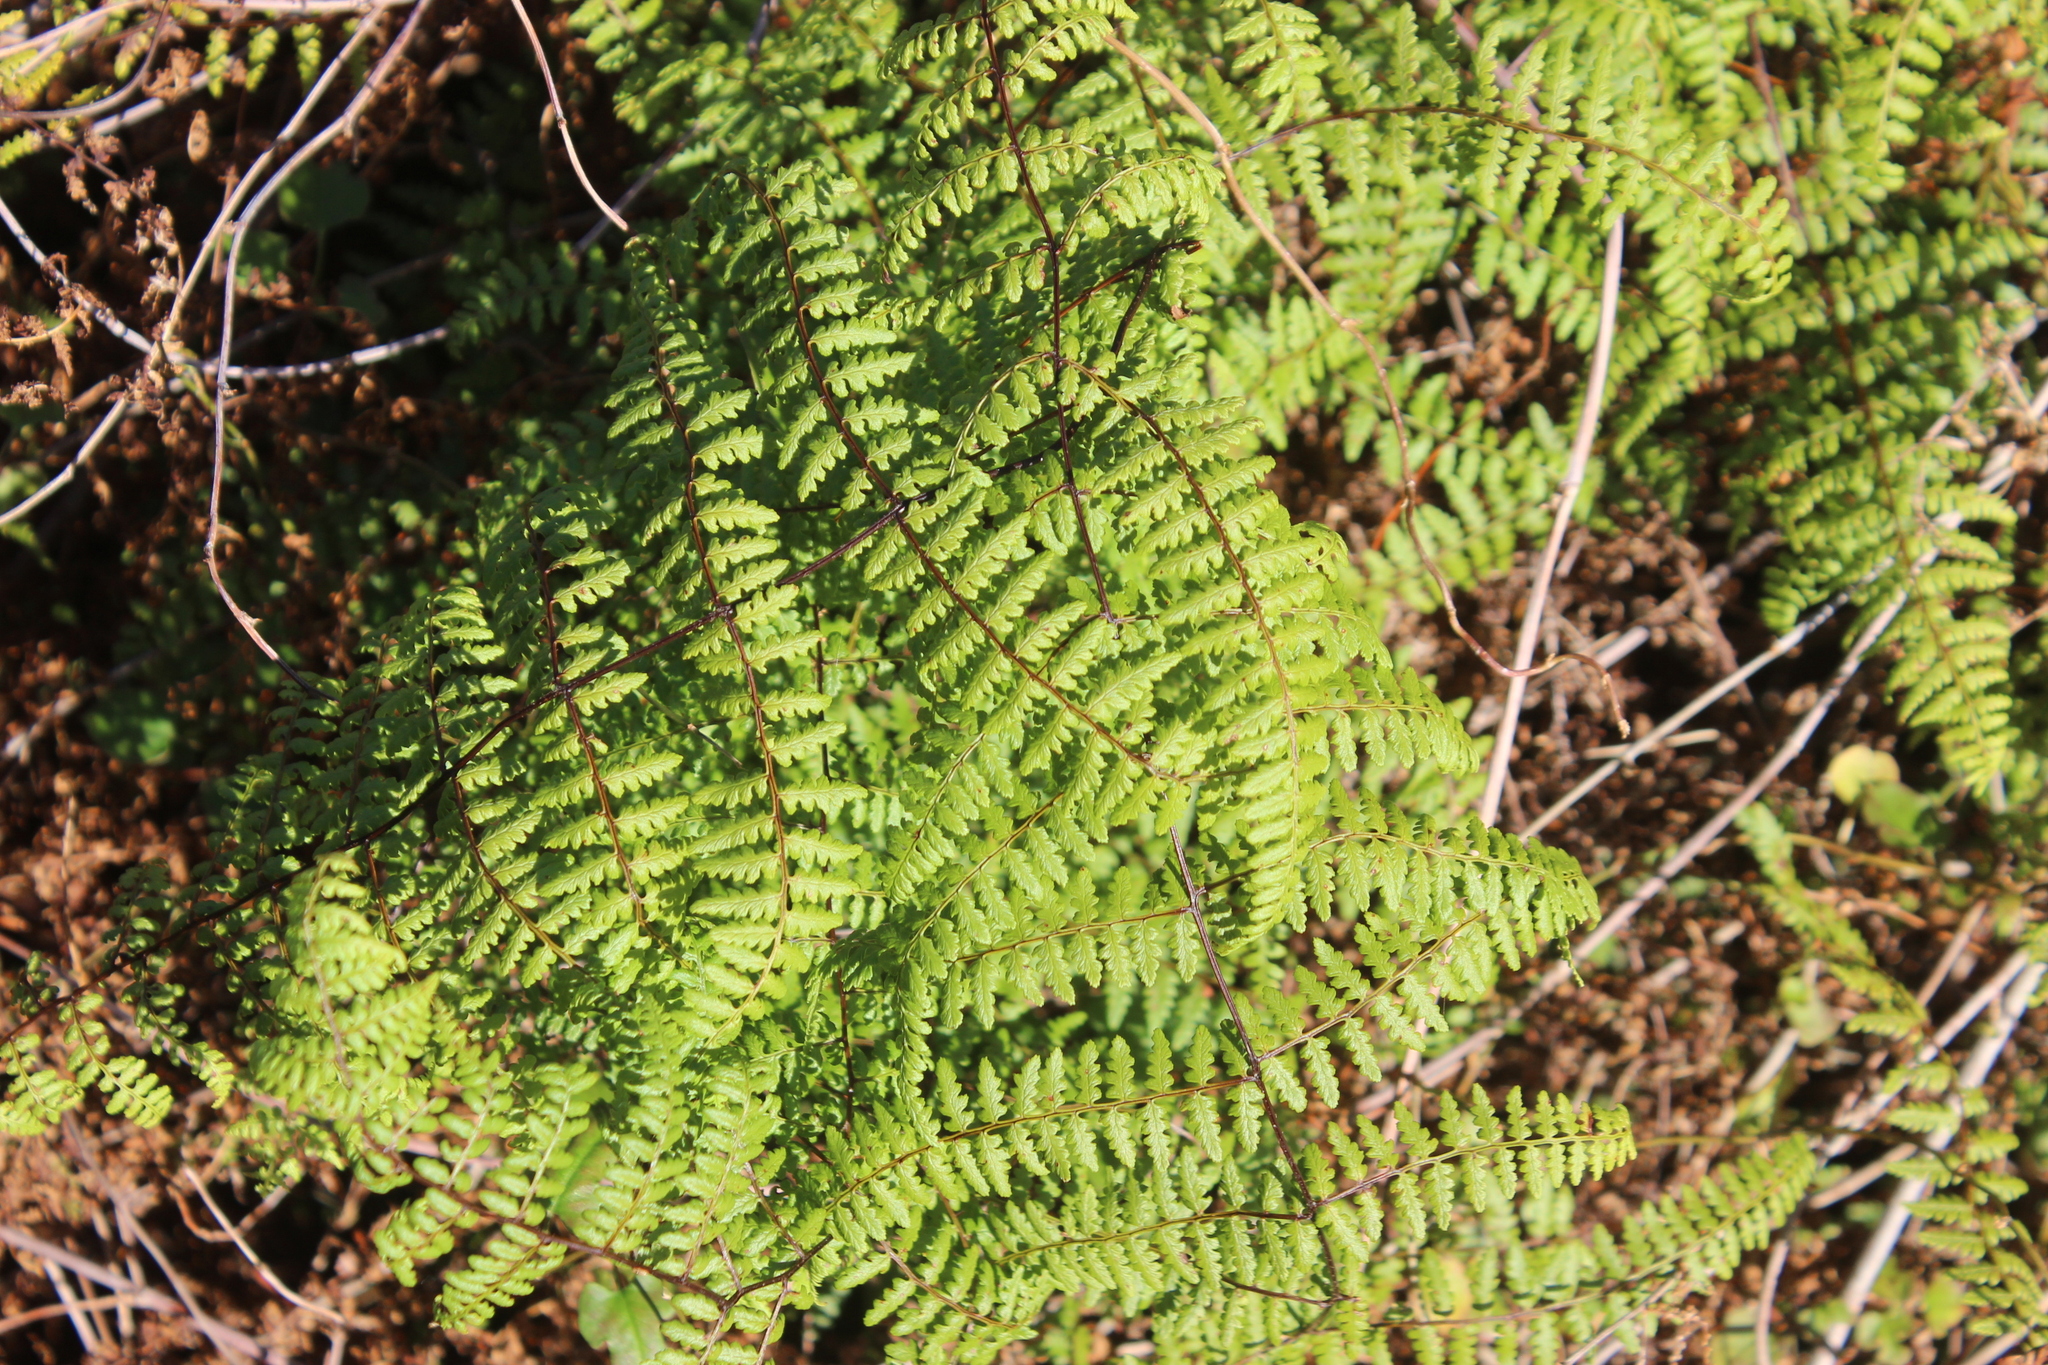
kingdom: Plantae
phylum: Tracheophyta
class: Polypodiopsida
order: Polypodiales
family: Dennstaedtiaceae
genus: Hiya
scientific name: Hiya distans
